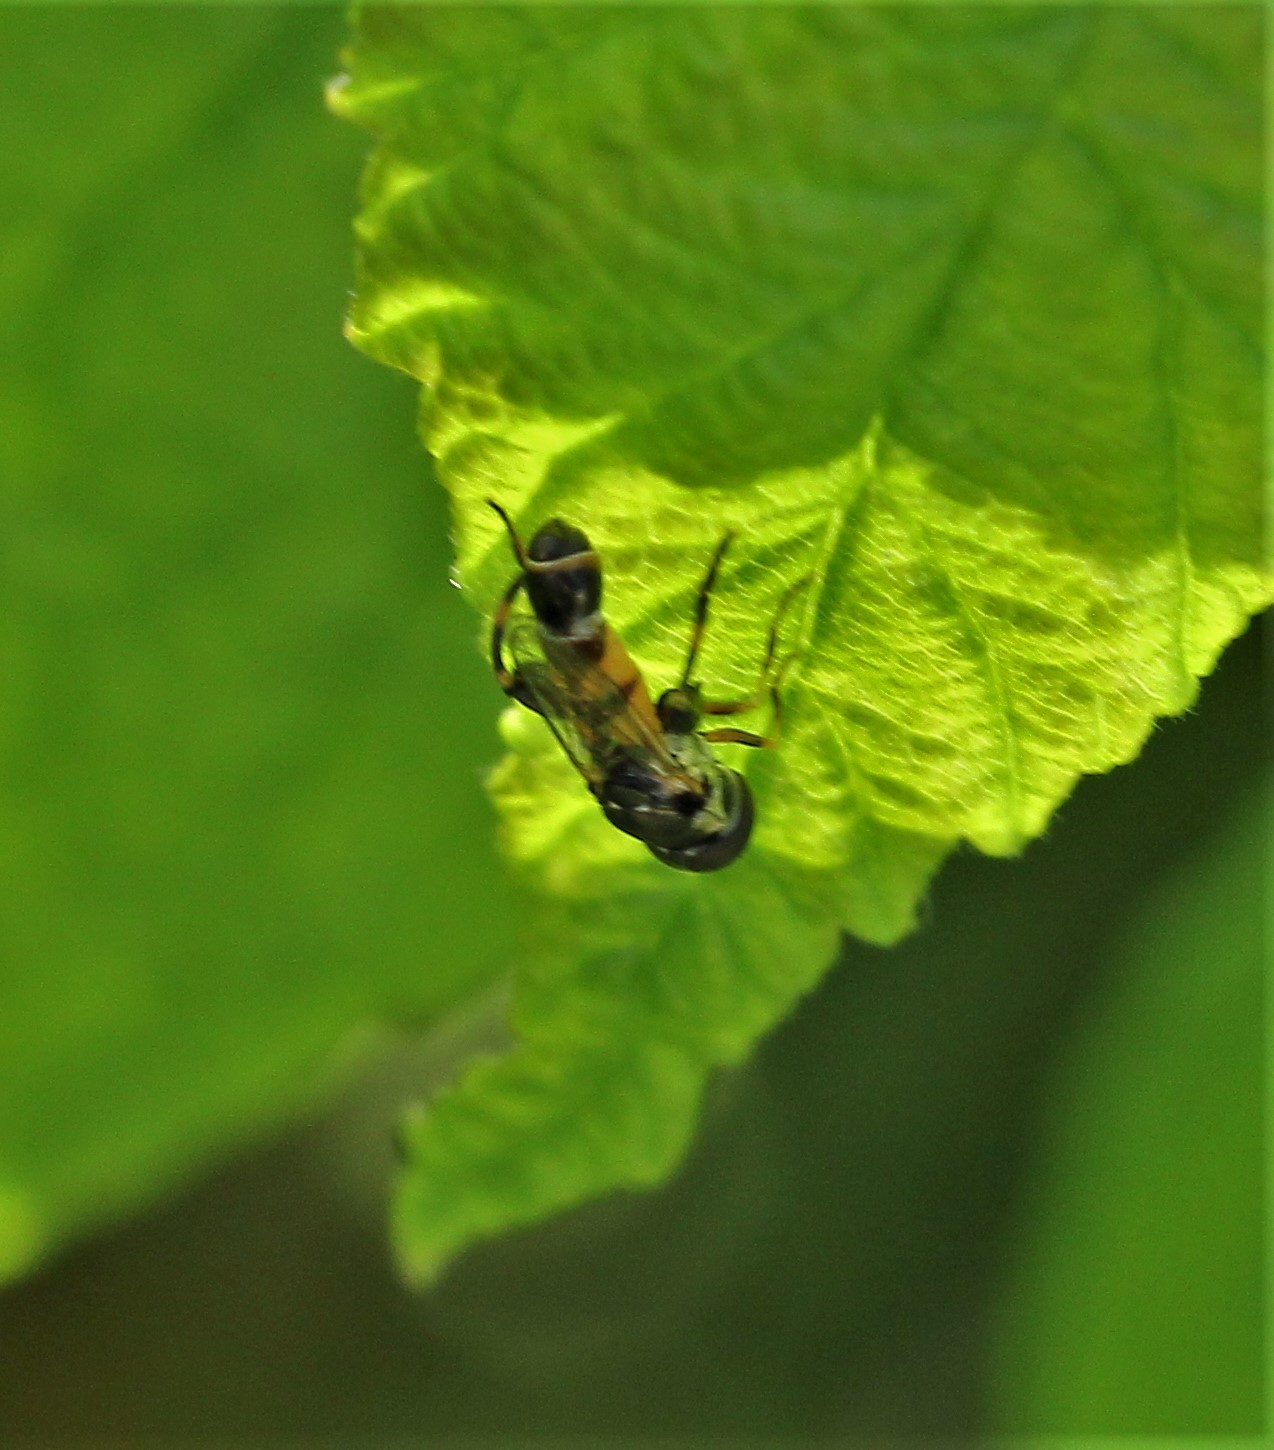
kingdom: Animalia
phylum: Arthropoda
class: Insecta
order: Diptera
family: Syrphidae
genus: Syritta
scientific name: Syritta pipiens
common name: Hover fly
